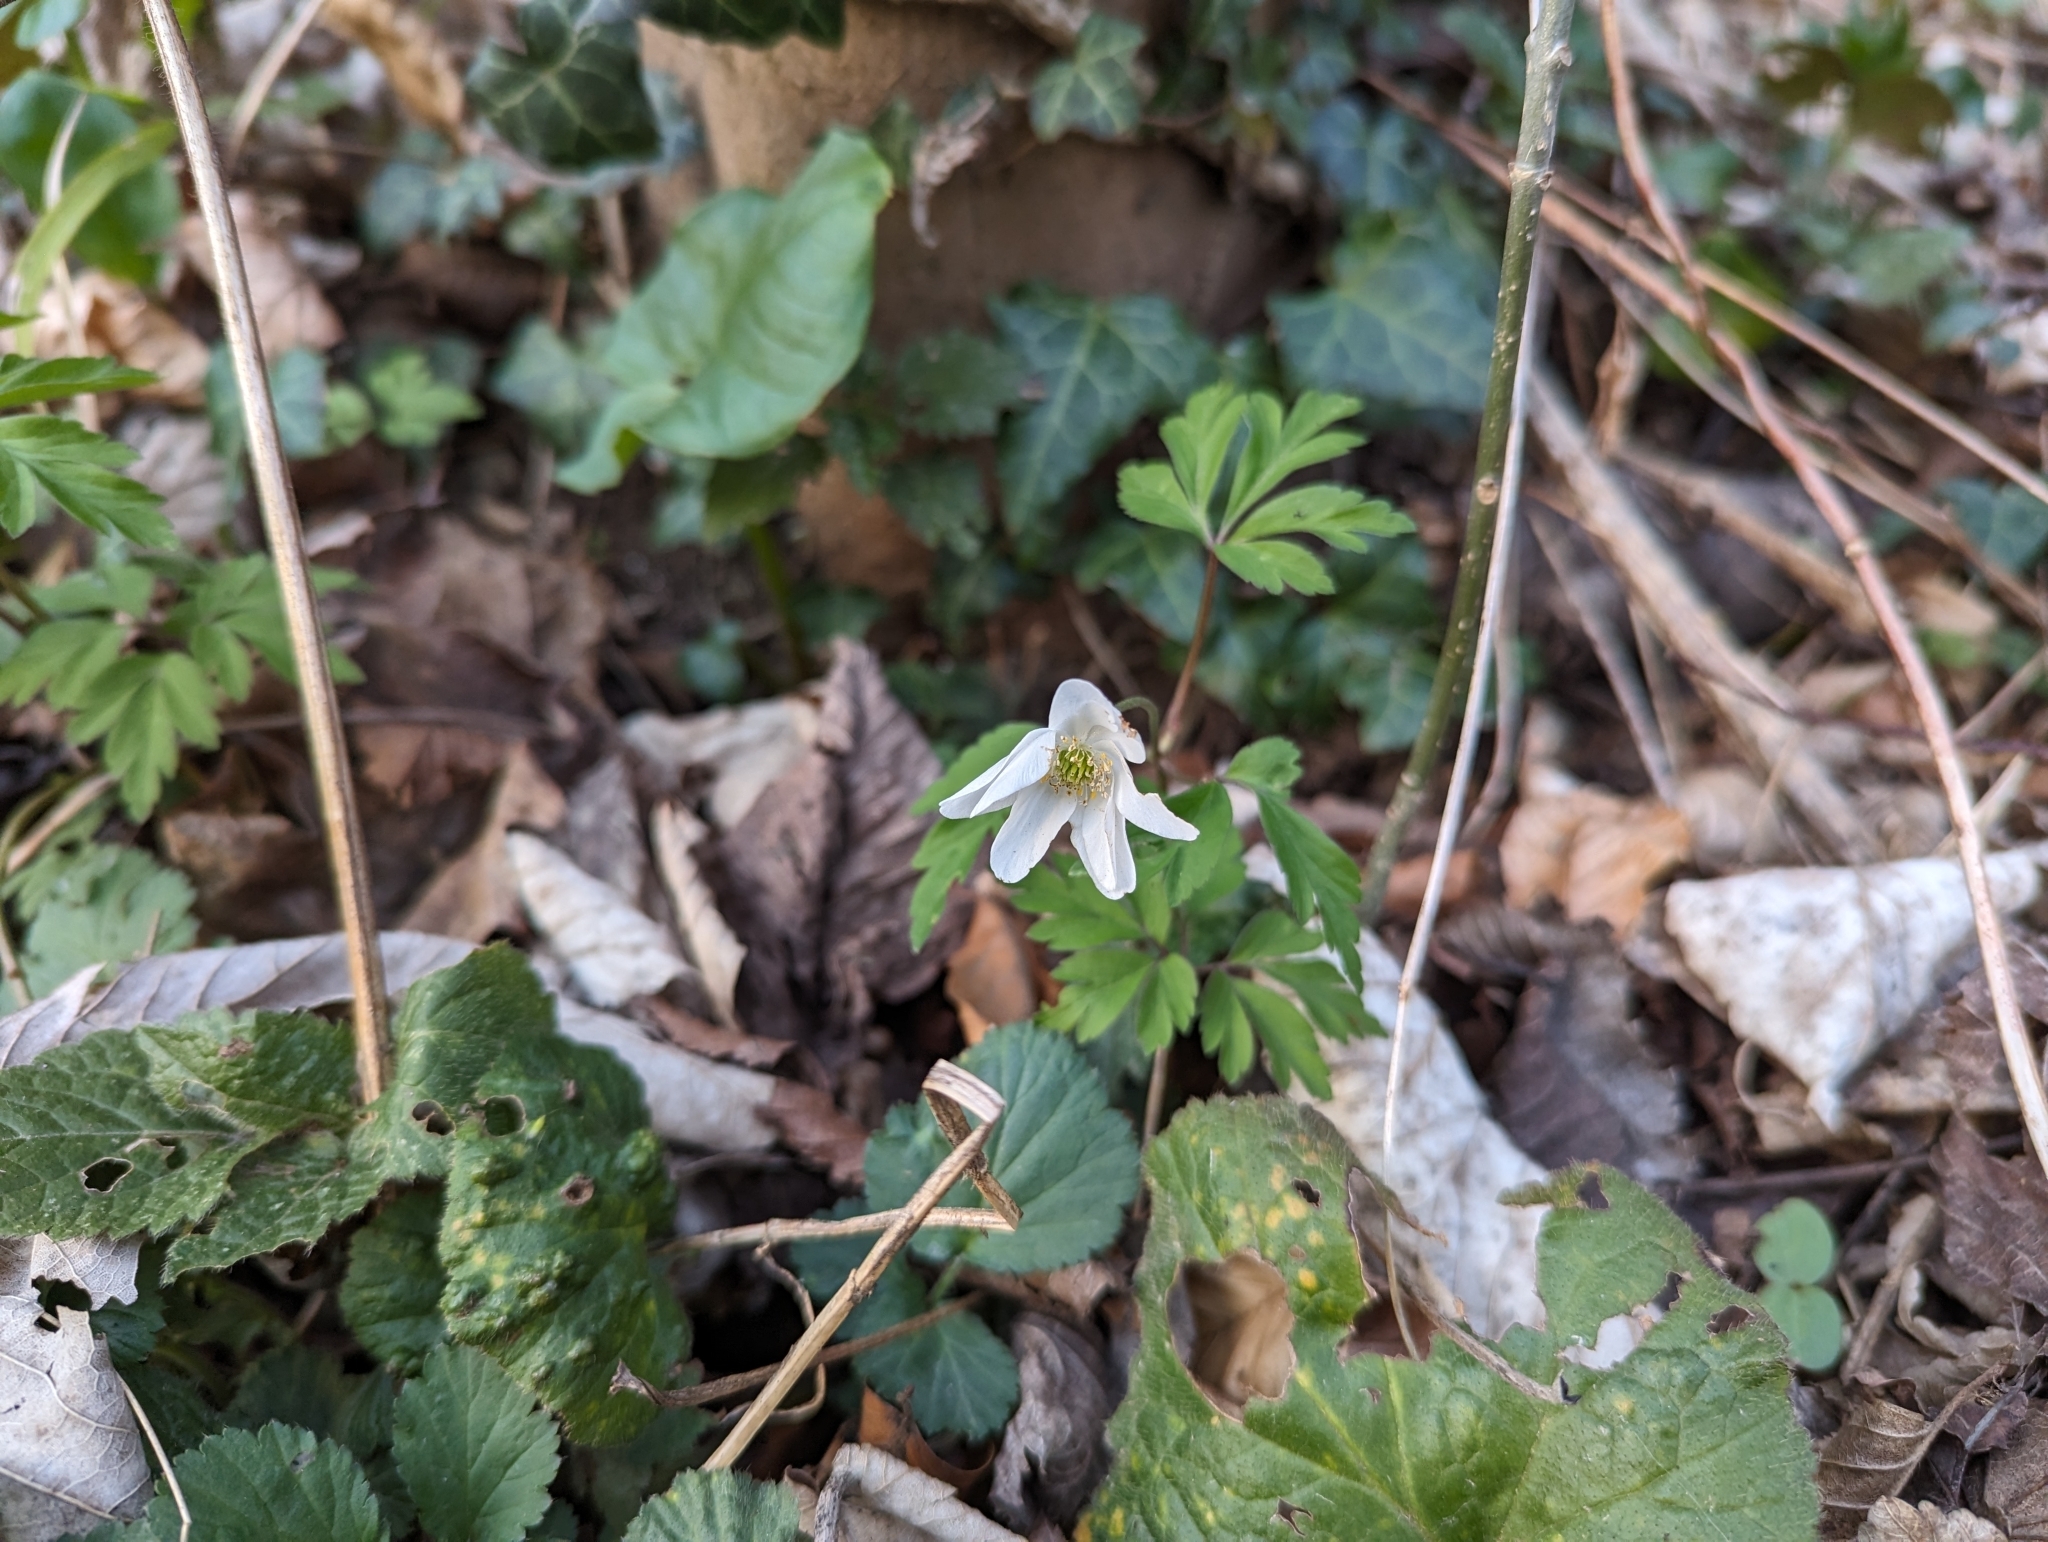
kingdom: Plantae
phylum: Tracheophyta
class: Magnoliopsida
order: Ranunculales
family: Ranunculaceae
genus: Anemone
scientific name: Anemone nemorosa
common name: Wood anemone
